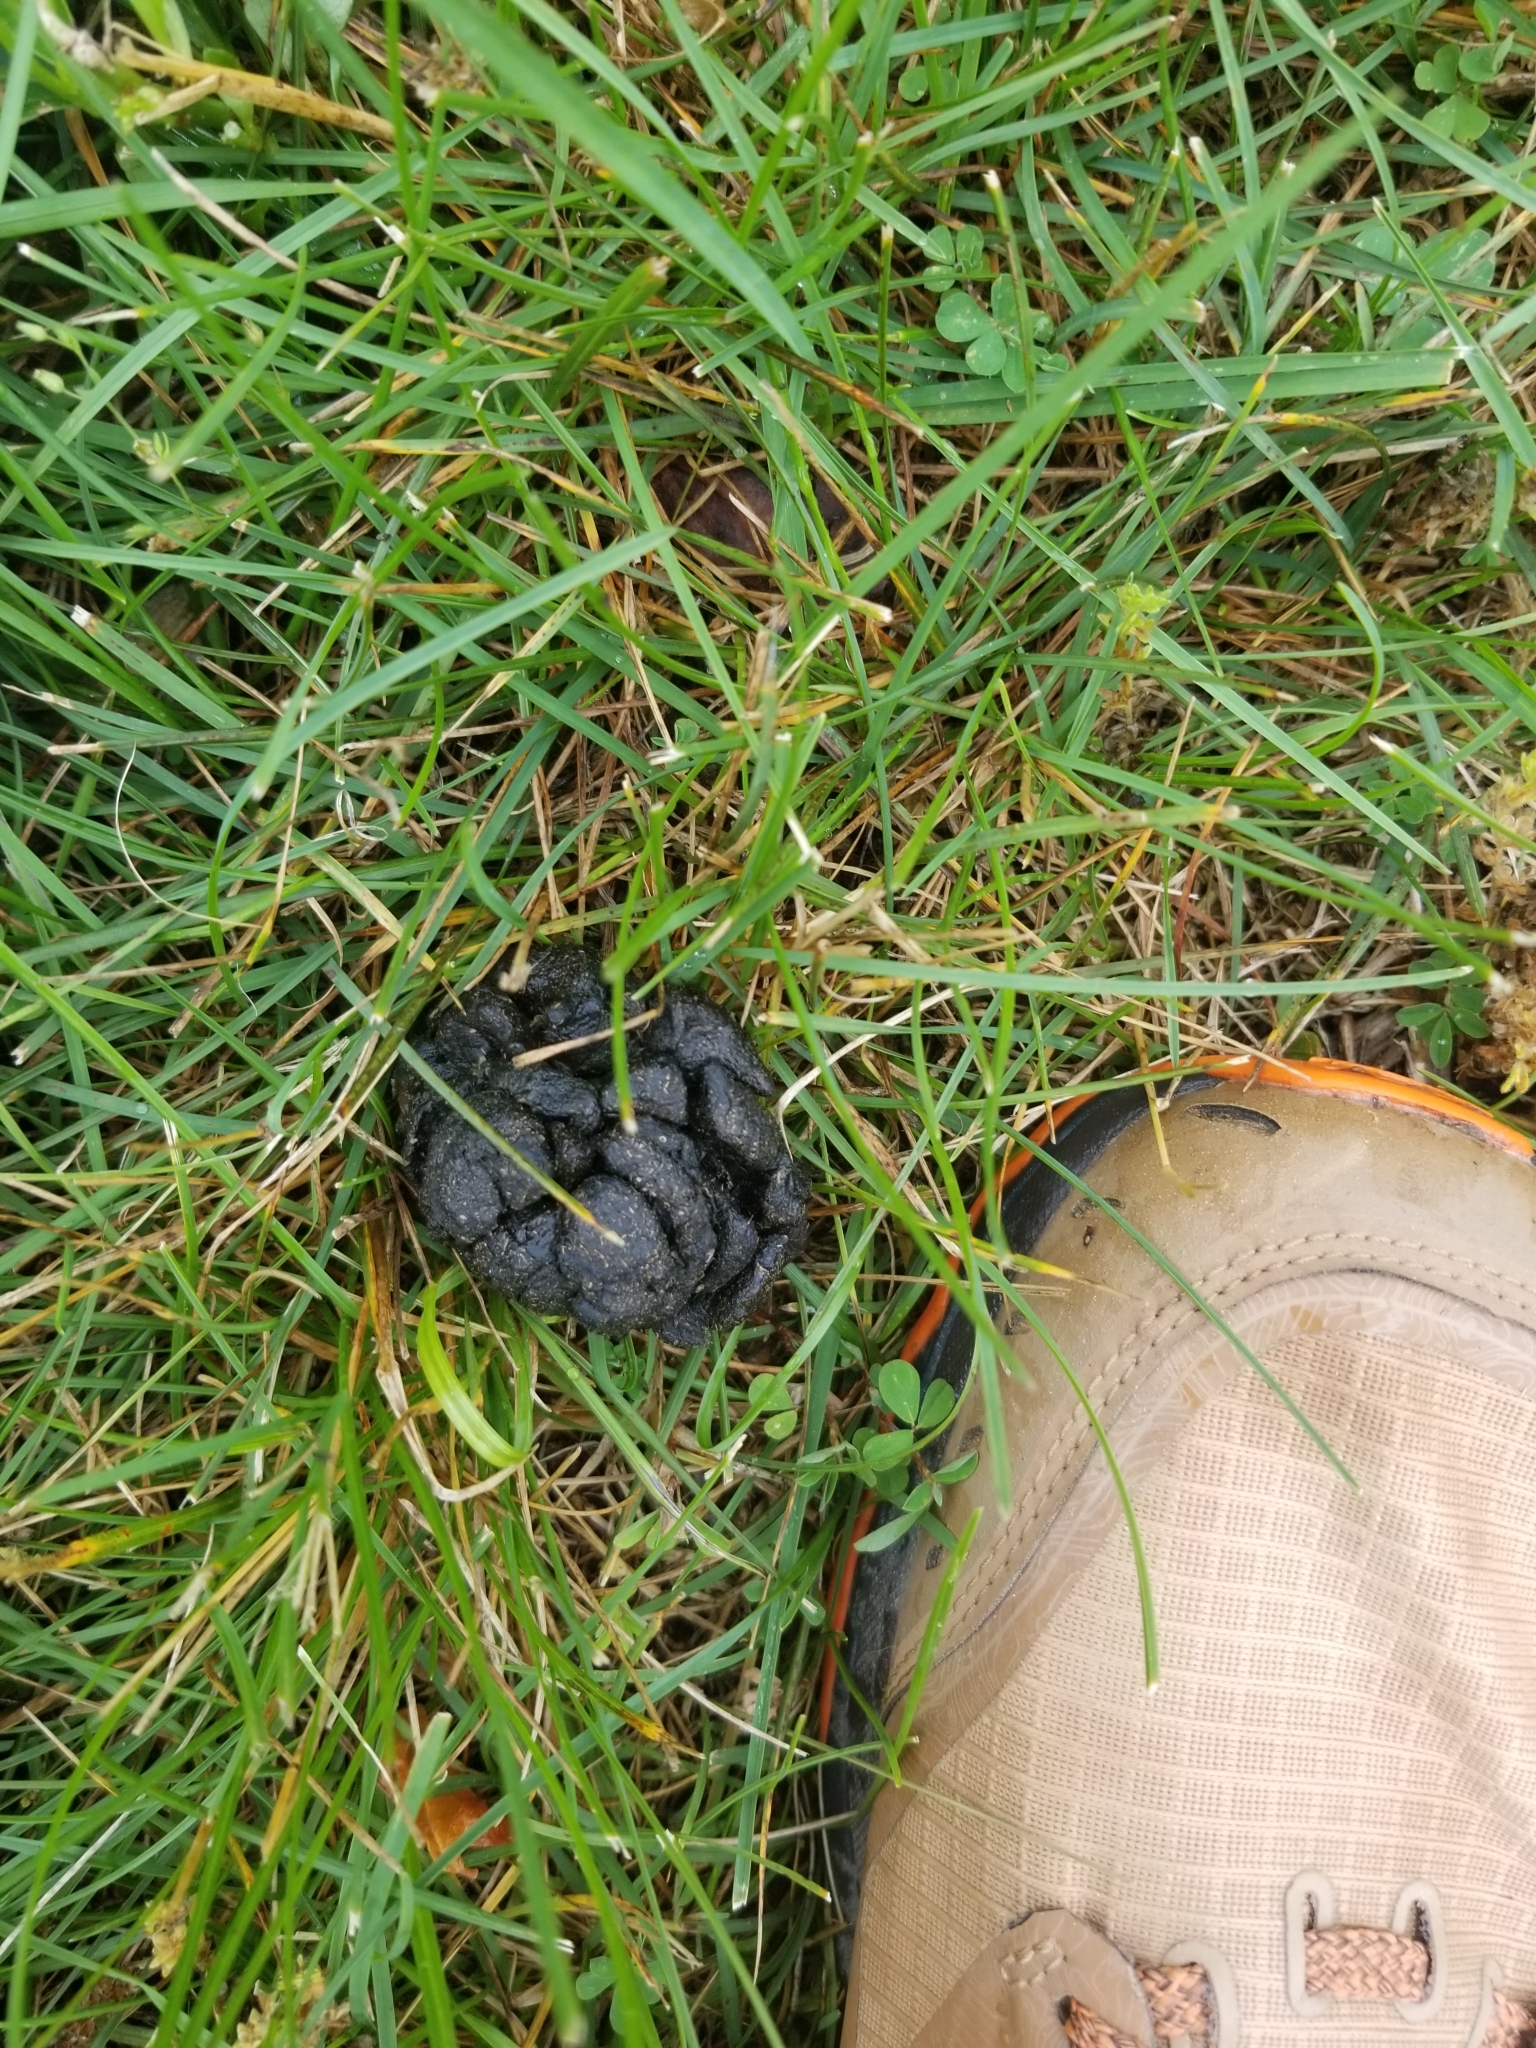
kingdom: Animalia
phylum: Chordata
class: Mammalia
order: Artiodactyla
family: Cervidae
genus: Odocoileus
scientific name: Odocoileus virginianus
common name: White-tailed deer
